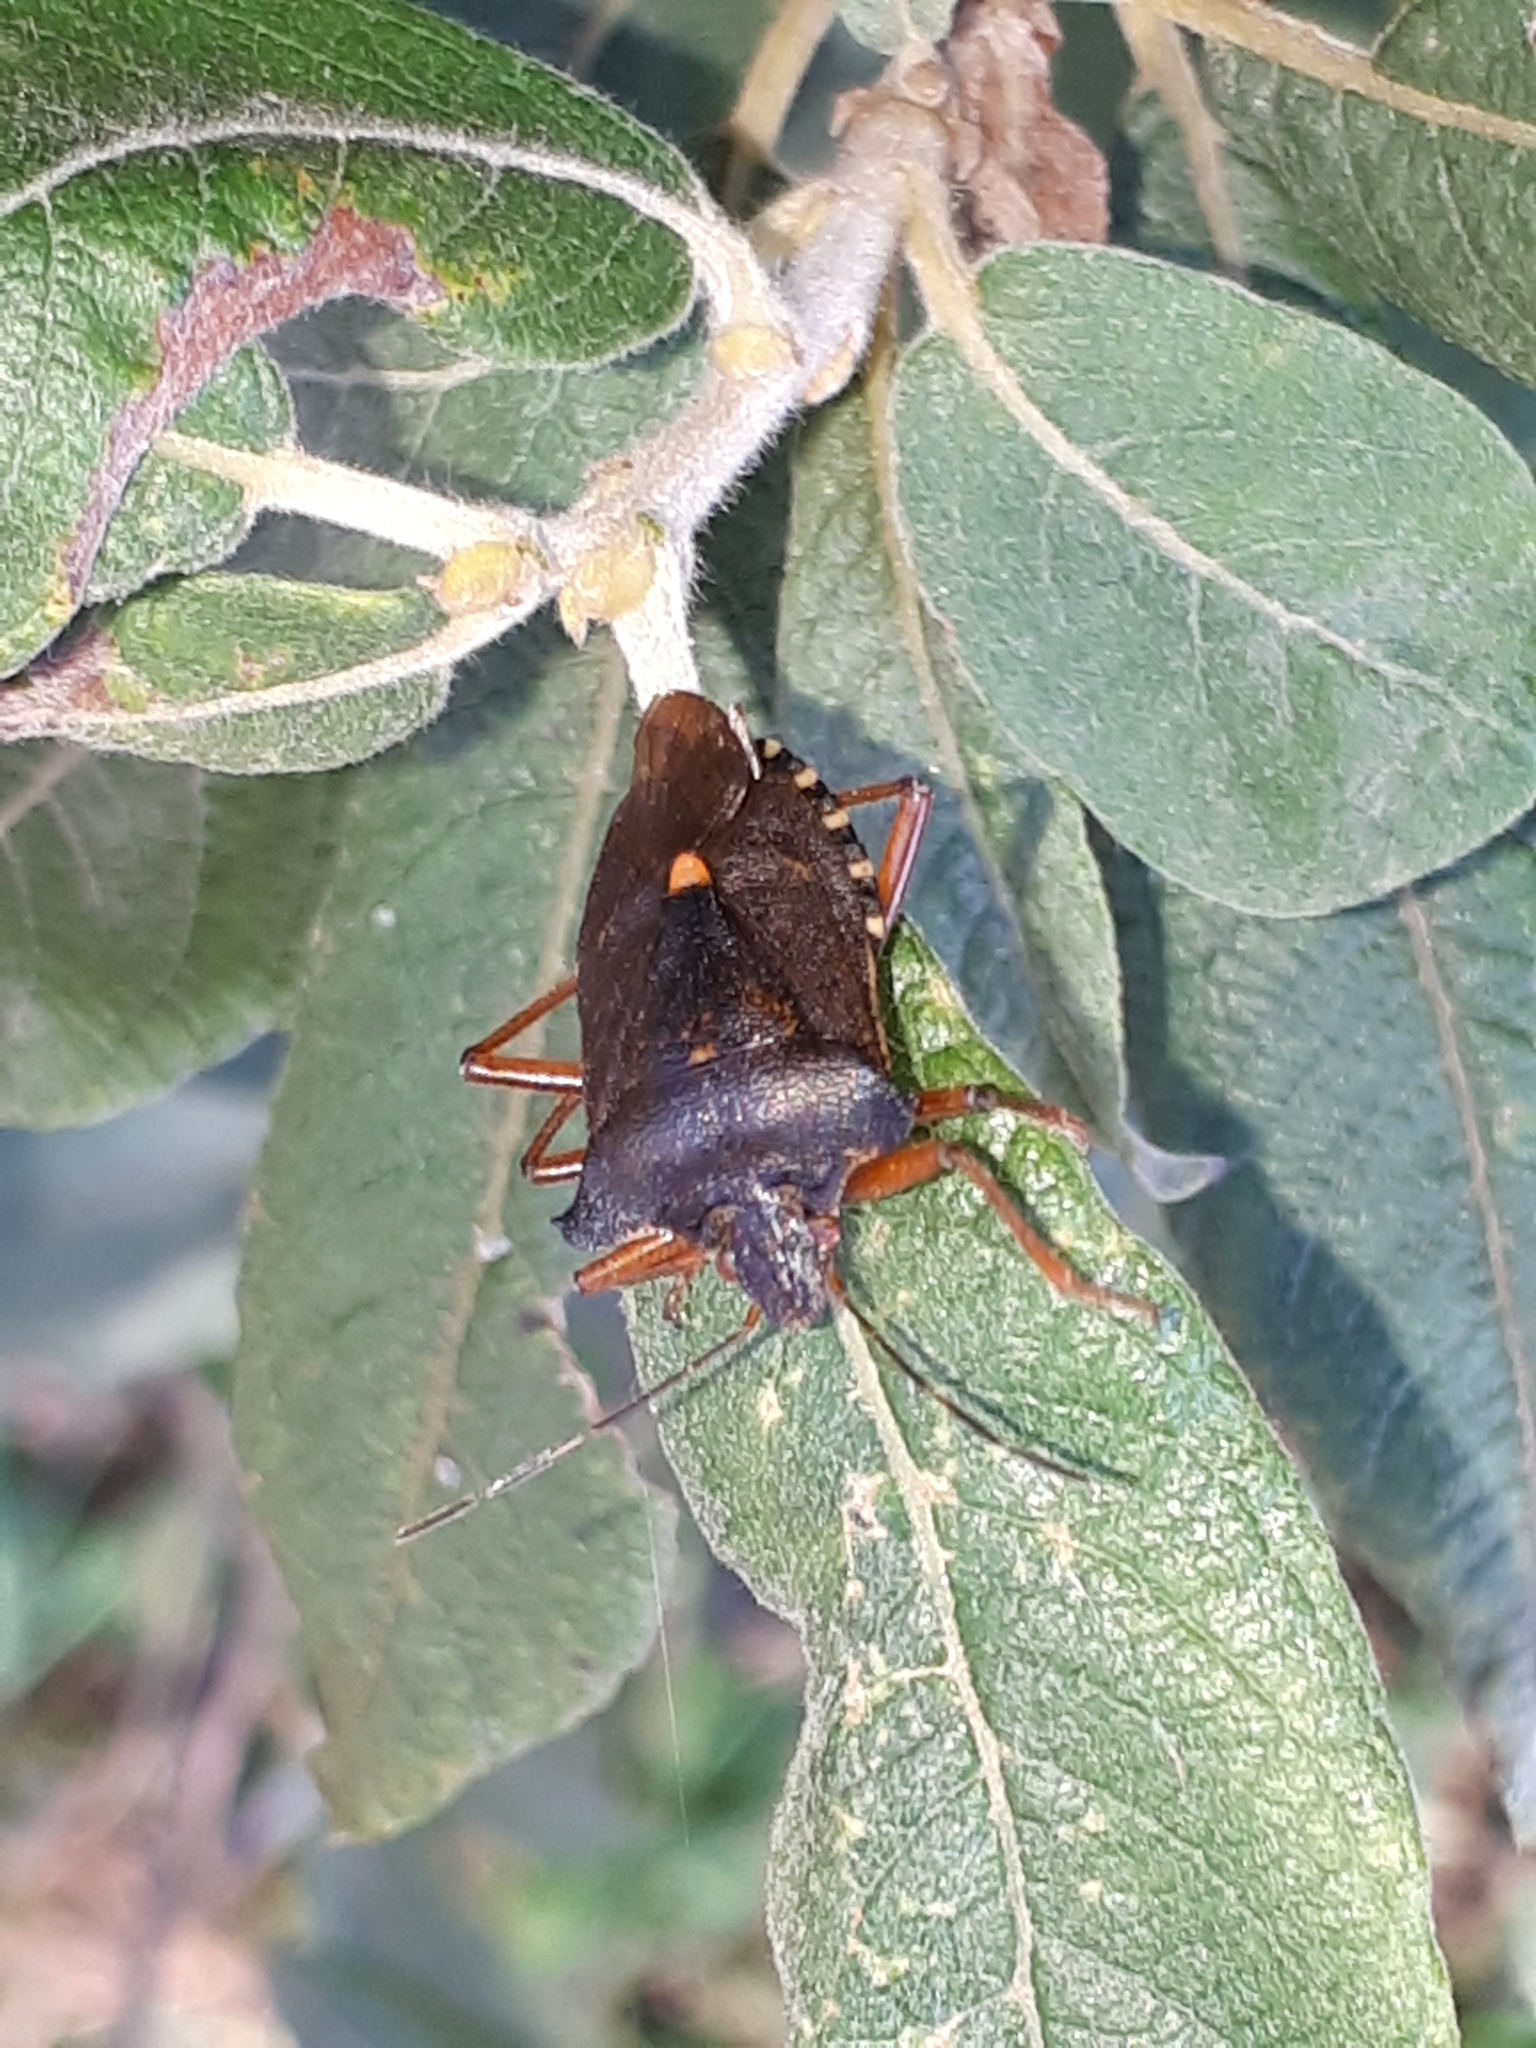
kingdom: Animalia
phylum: Arthropoda
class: Insecta
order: Hemiptera
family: Pentatomidae
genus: Pentatoma
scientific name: Pentatoma rufipes
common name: Forest bug
